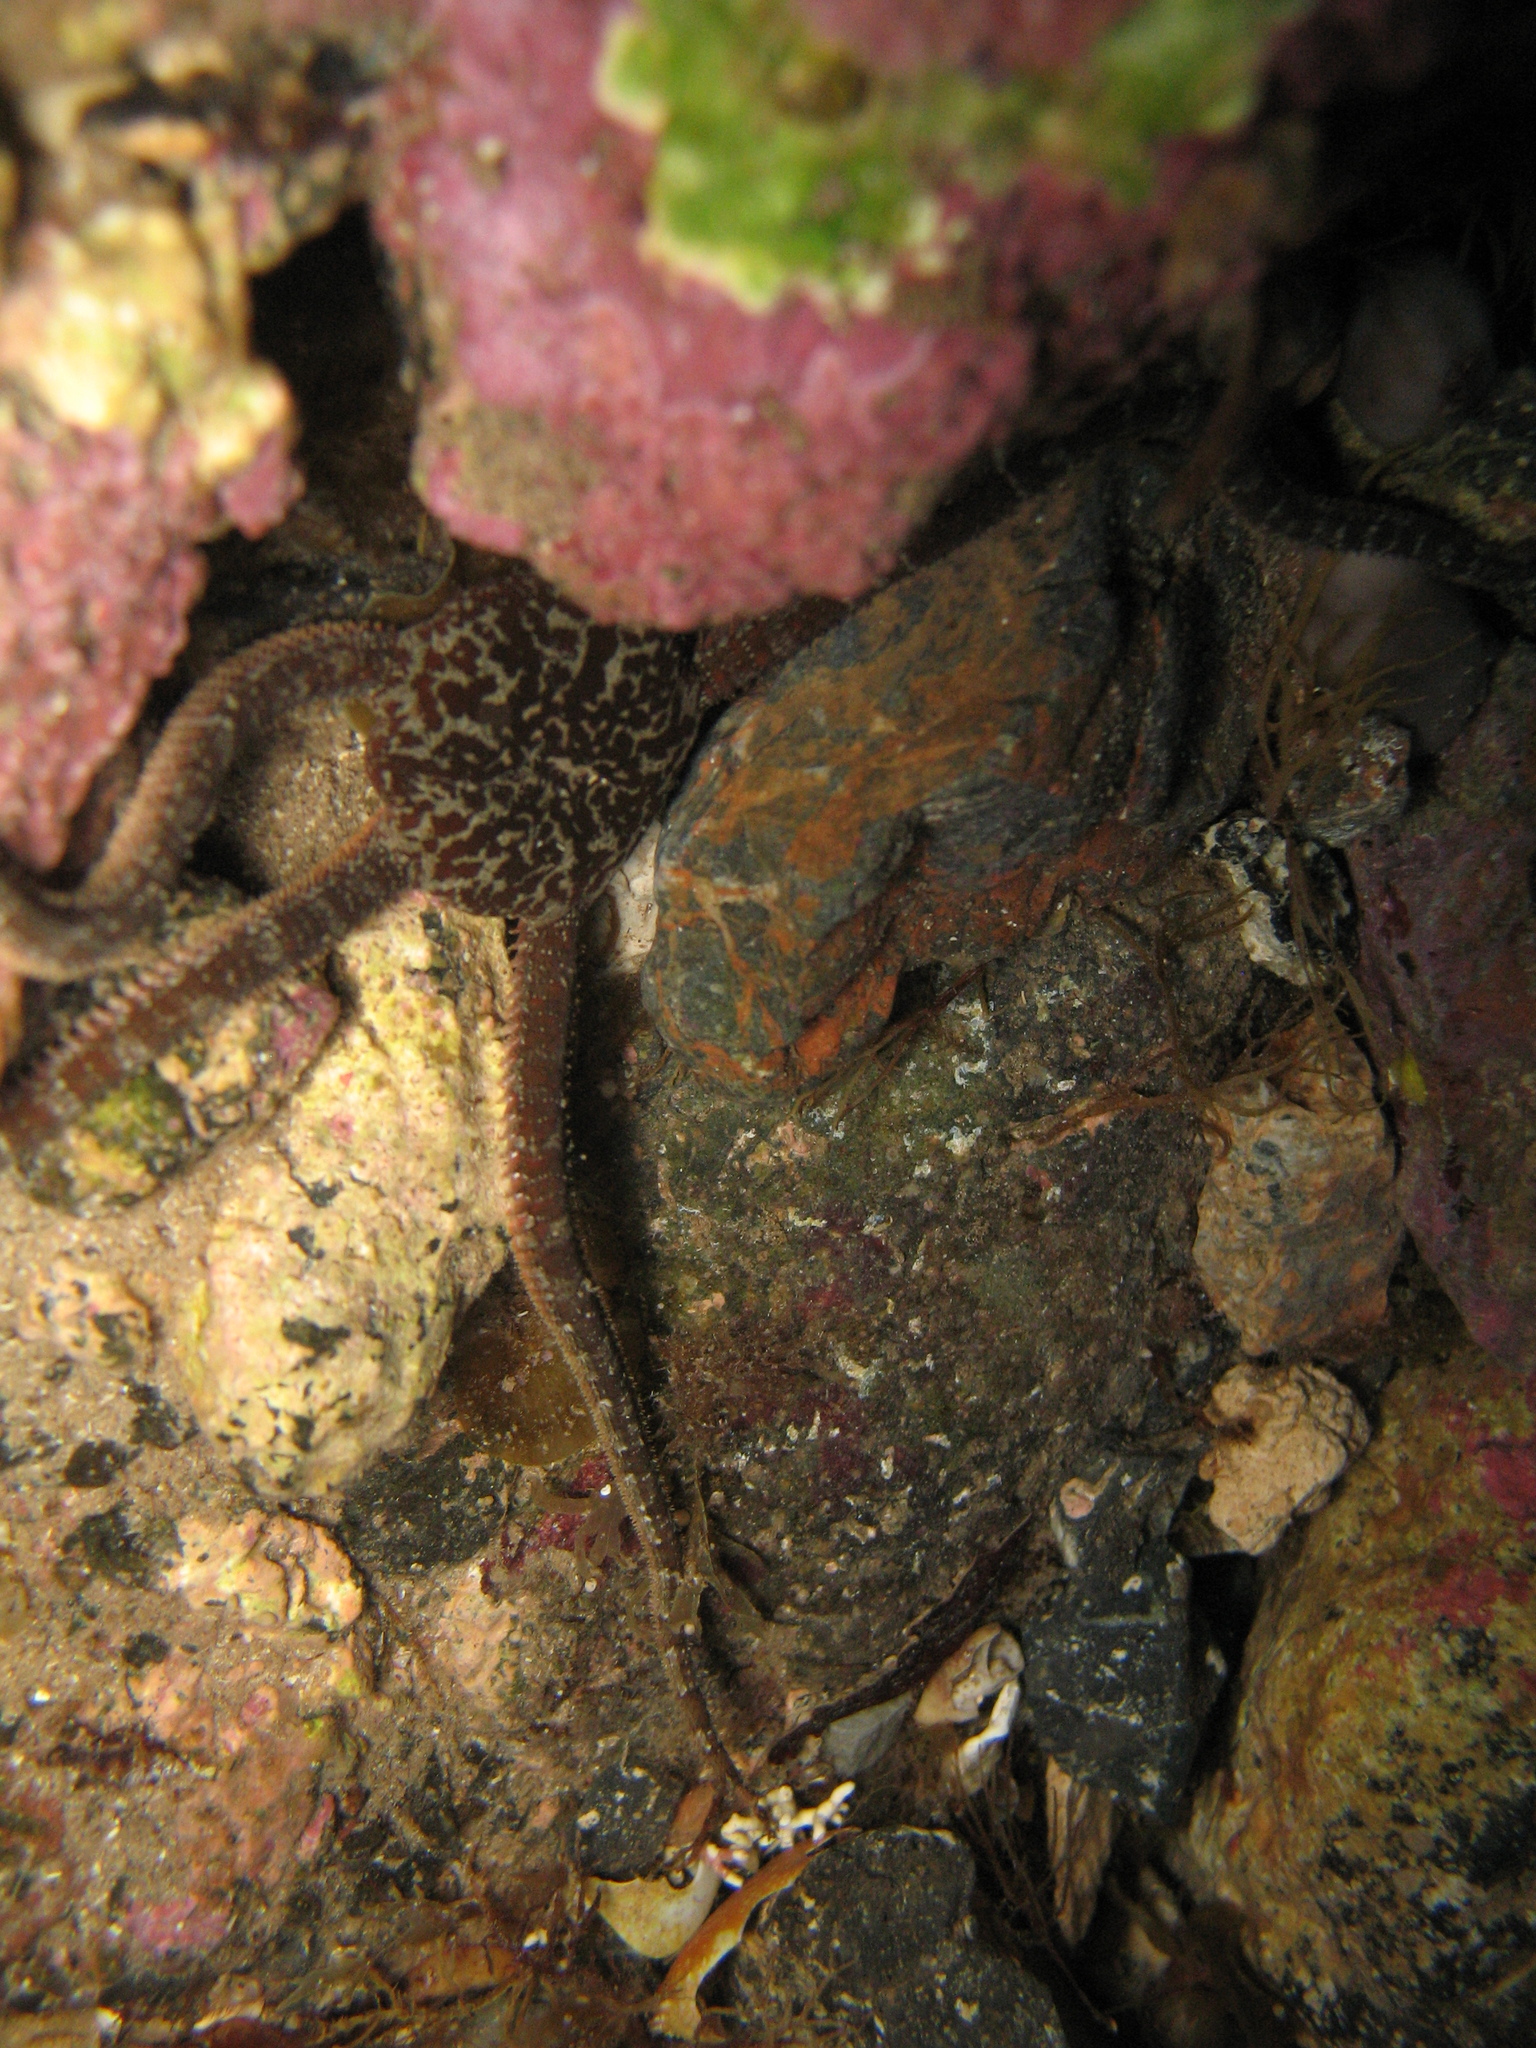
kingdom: Animalia
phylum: Echinodermata
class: Ophiuroidea
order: Ophiacanthida
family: Ophiodermatidae
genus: Ophioderma
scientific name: Ophioderma longicaudum
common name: Smooth brittle-star
